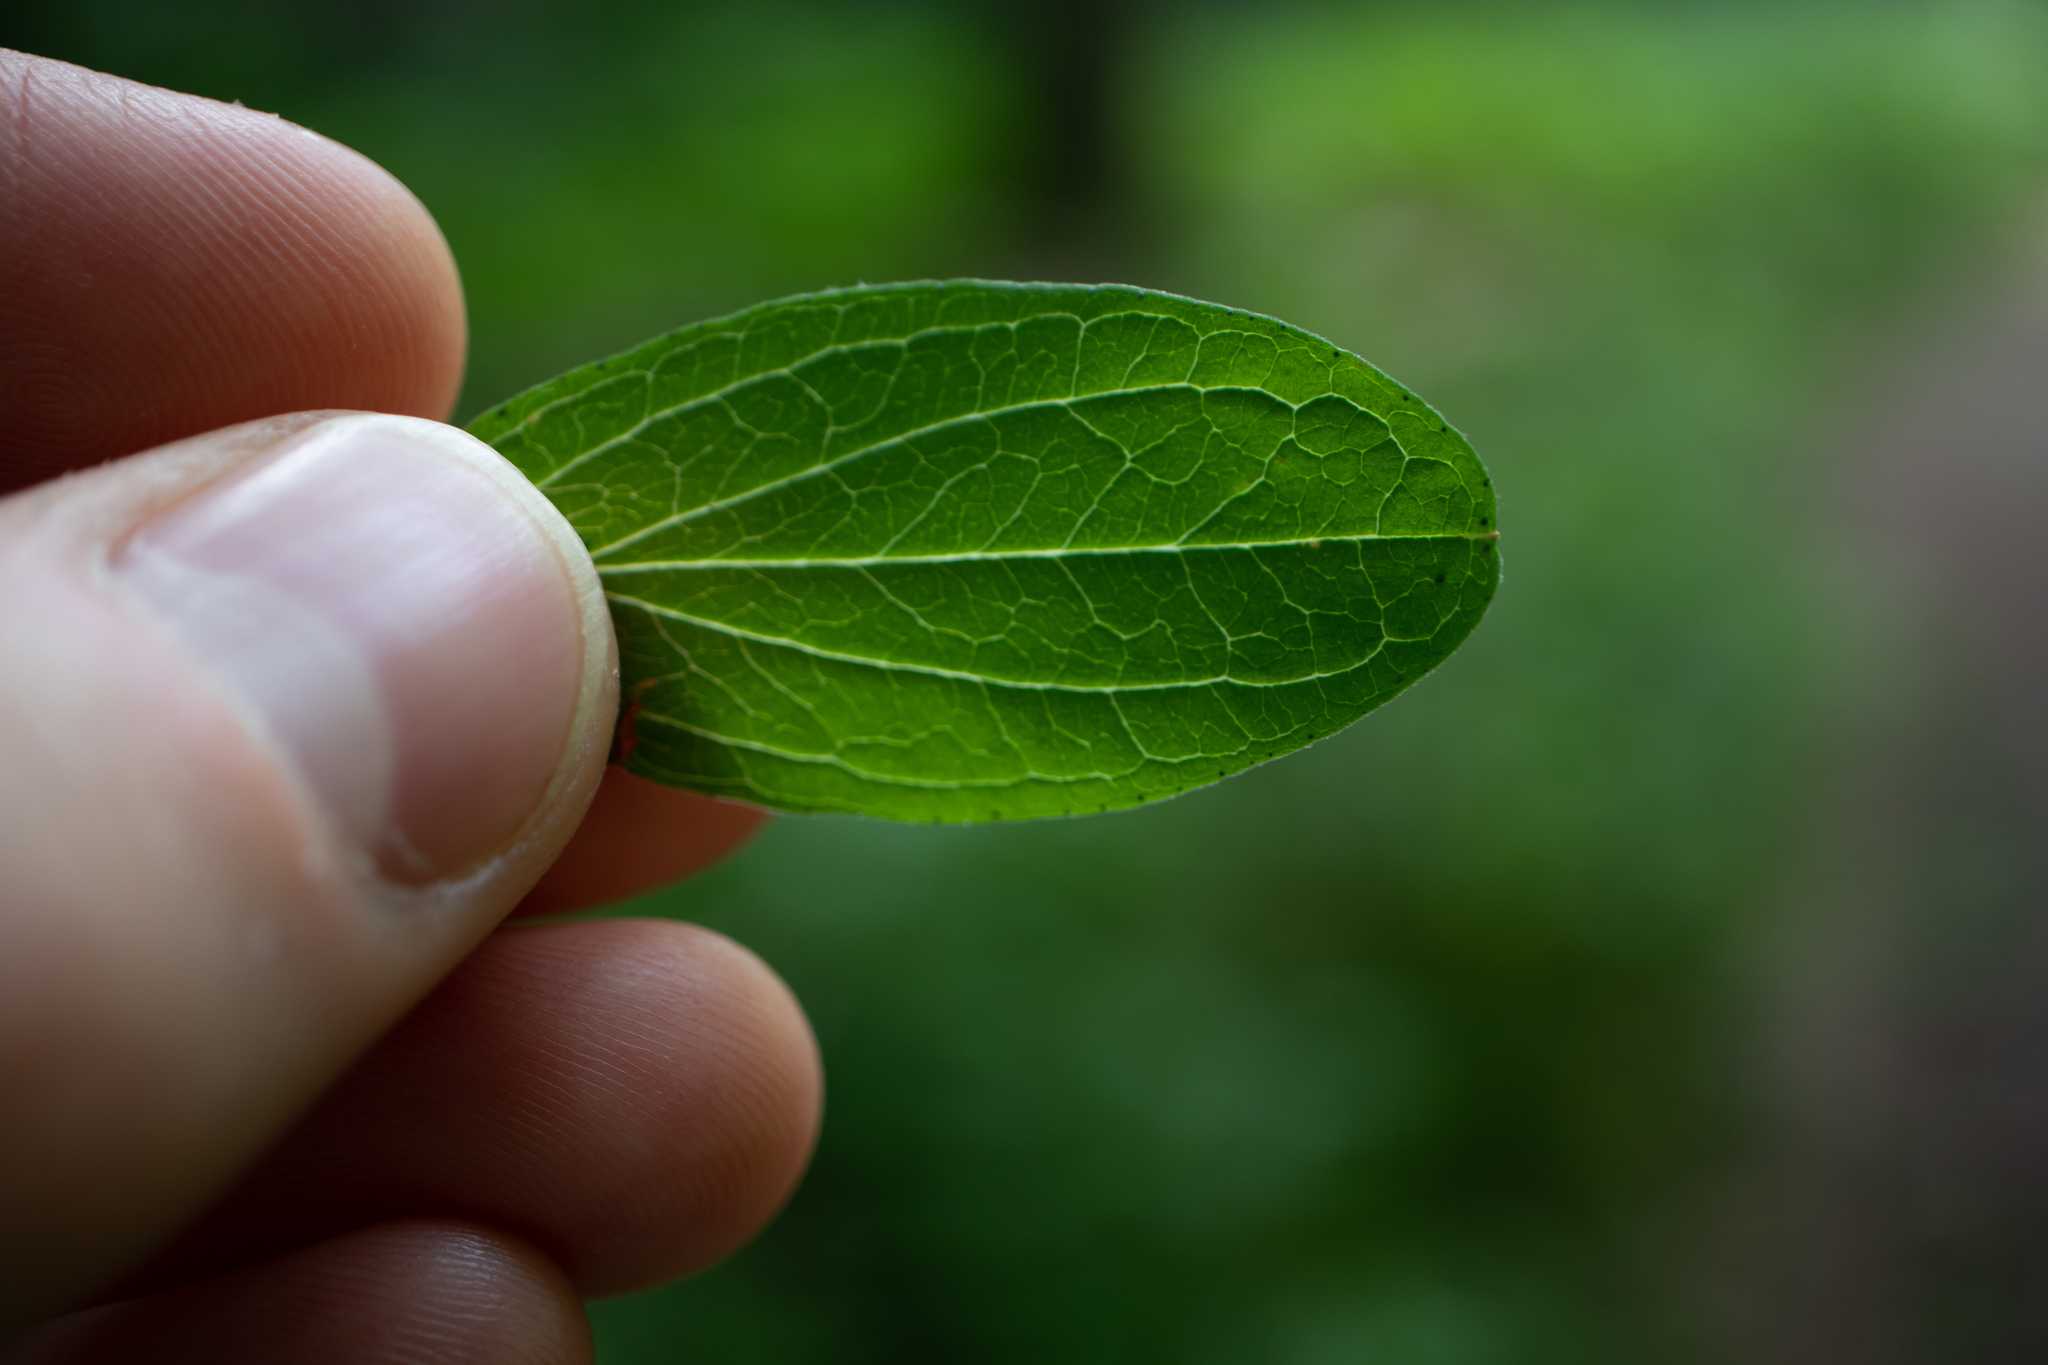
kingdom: Plantae
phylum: Tracheophyta
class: Magnoliopsida
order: Malpighiales
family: Hypericaceae
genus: Hypericum
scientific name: Hypericum maculatum
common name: Imperforate st. john's-wort
